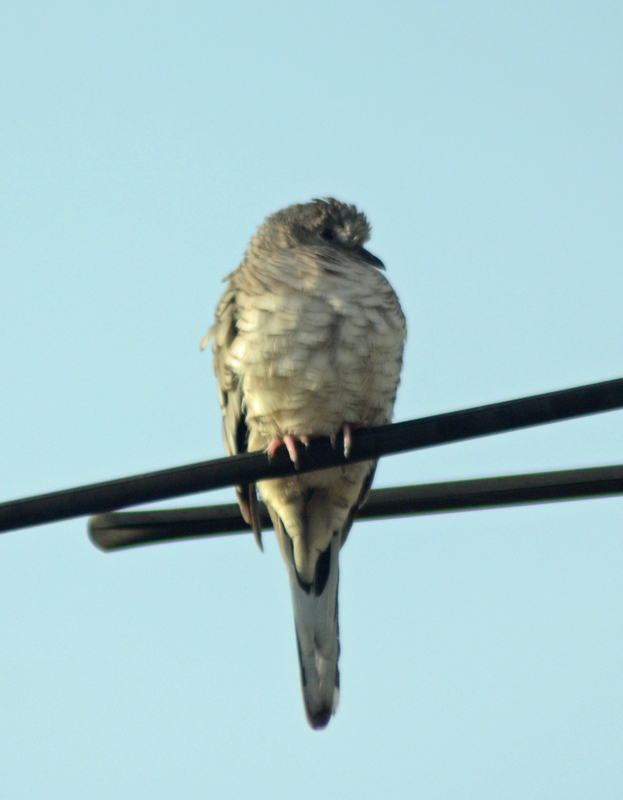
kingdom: Animalia
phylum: Chordata
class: Aves
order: Columbiformes
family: Columbidae
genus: Columbina
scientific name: Columbina inca
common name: Inca dove
